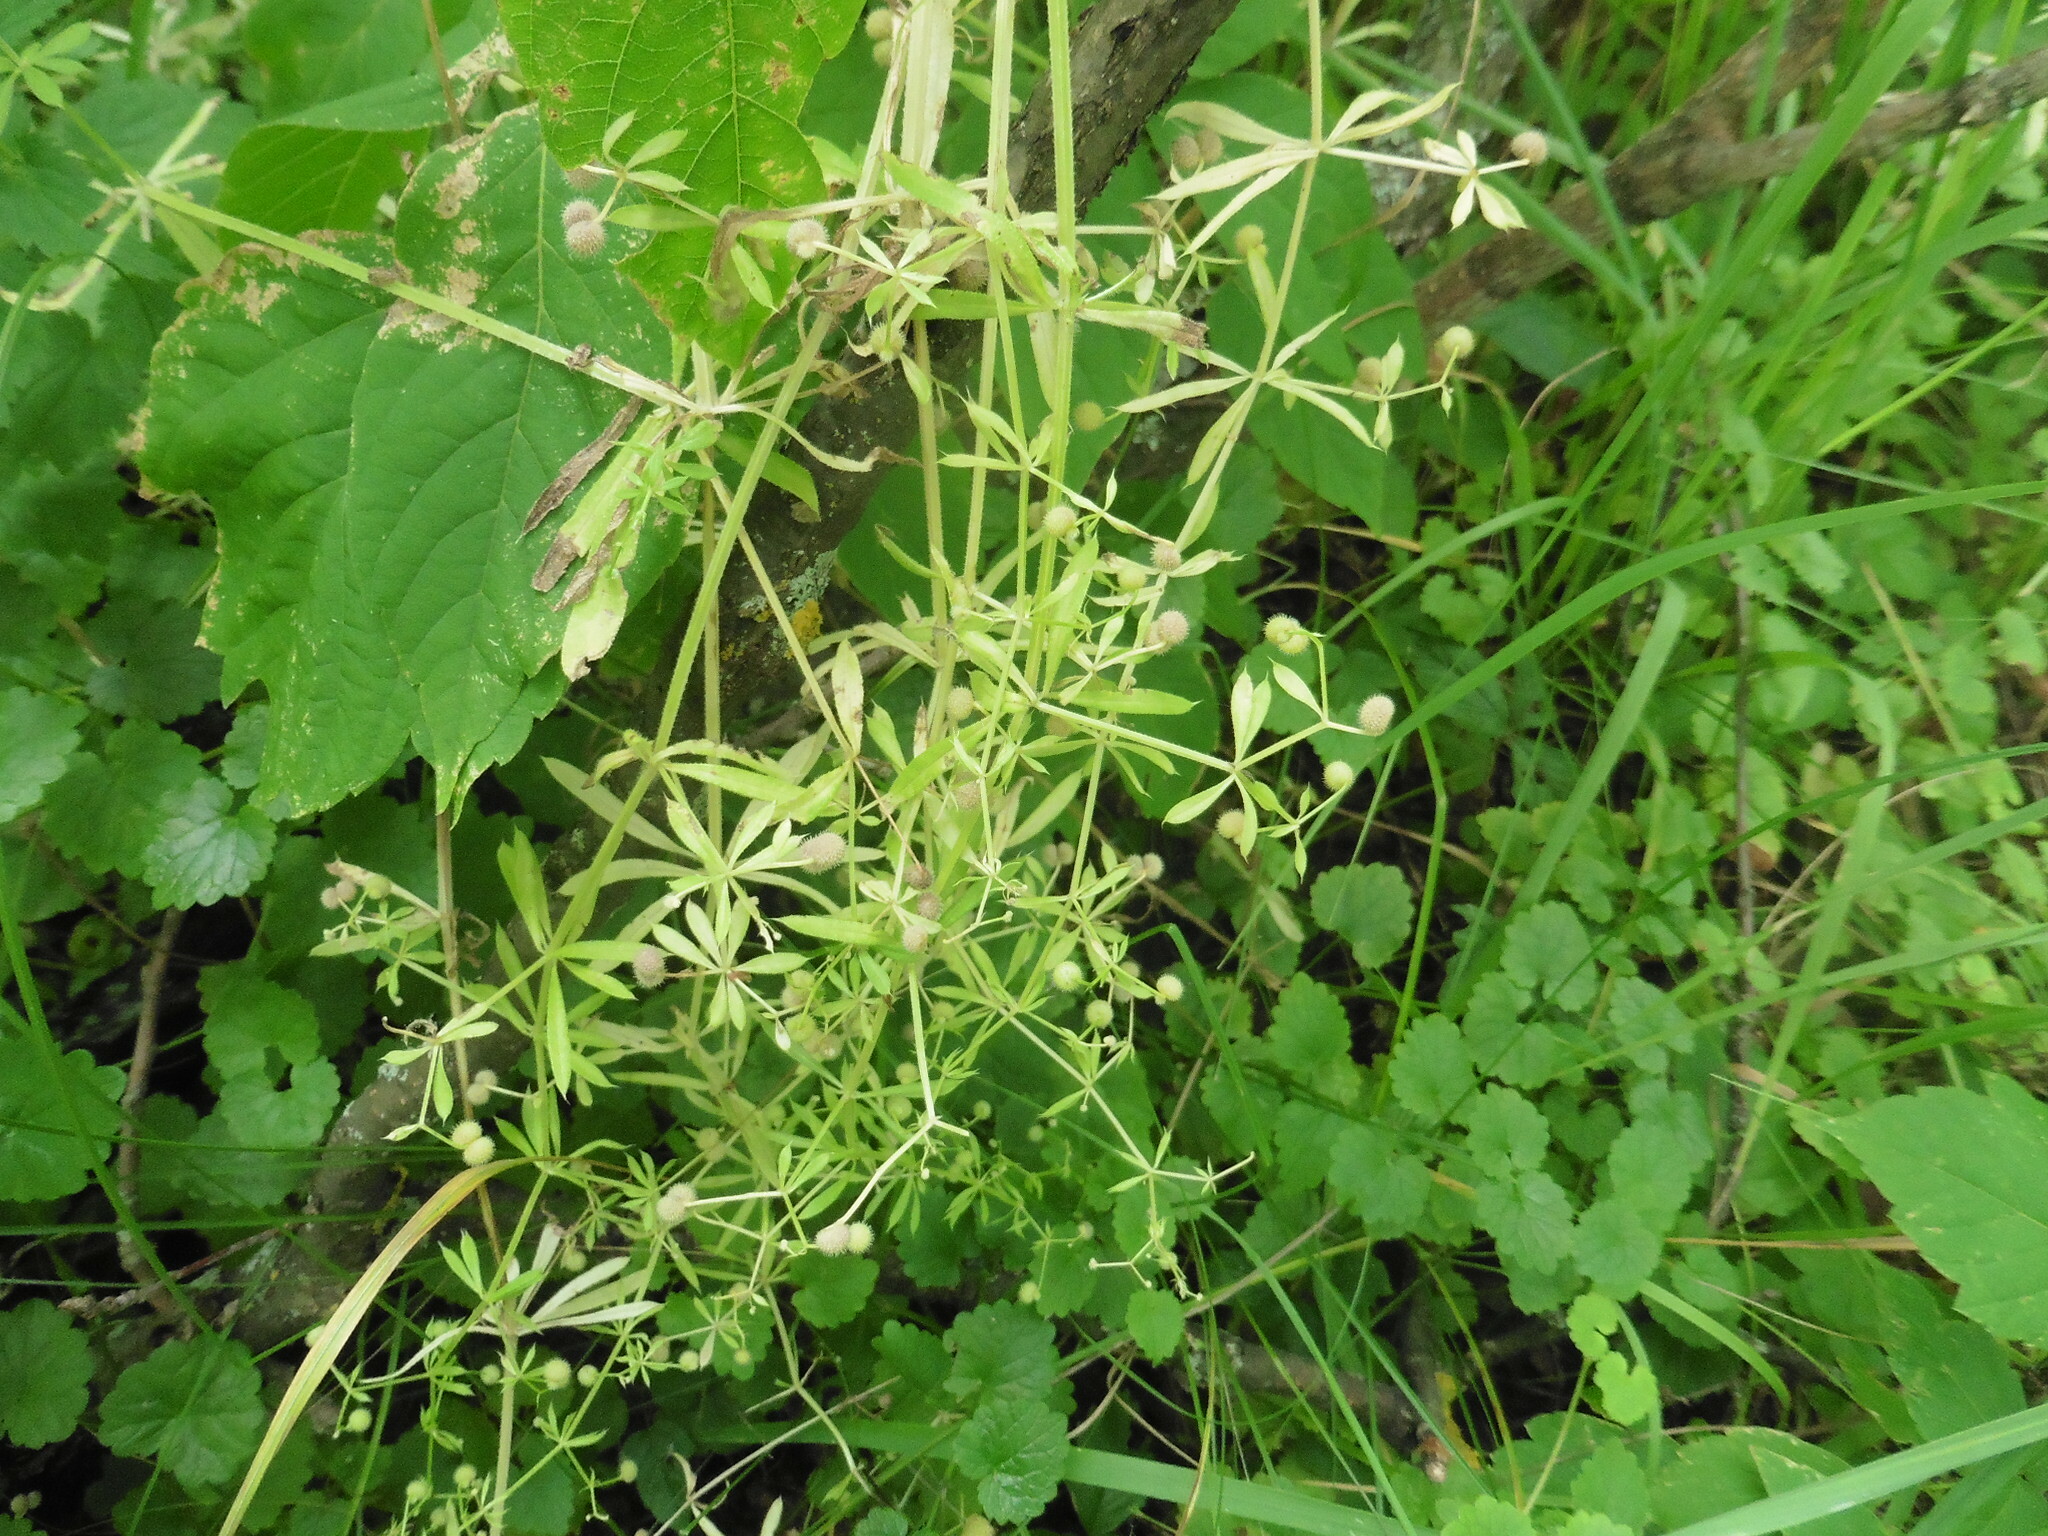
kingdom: Plantae
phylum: Tracheophyta
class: Magnoliopsida
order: Gentianales
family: Rubiaceae
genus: Galium
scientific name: Galium aparine
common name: Cleavers
